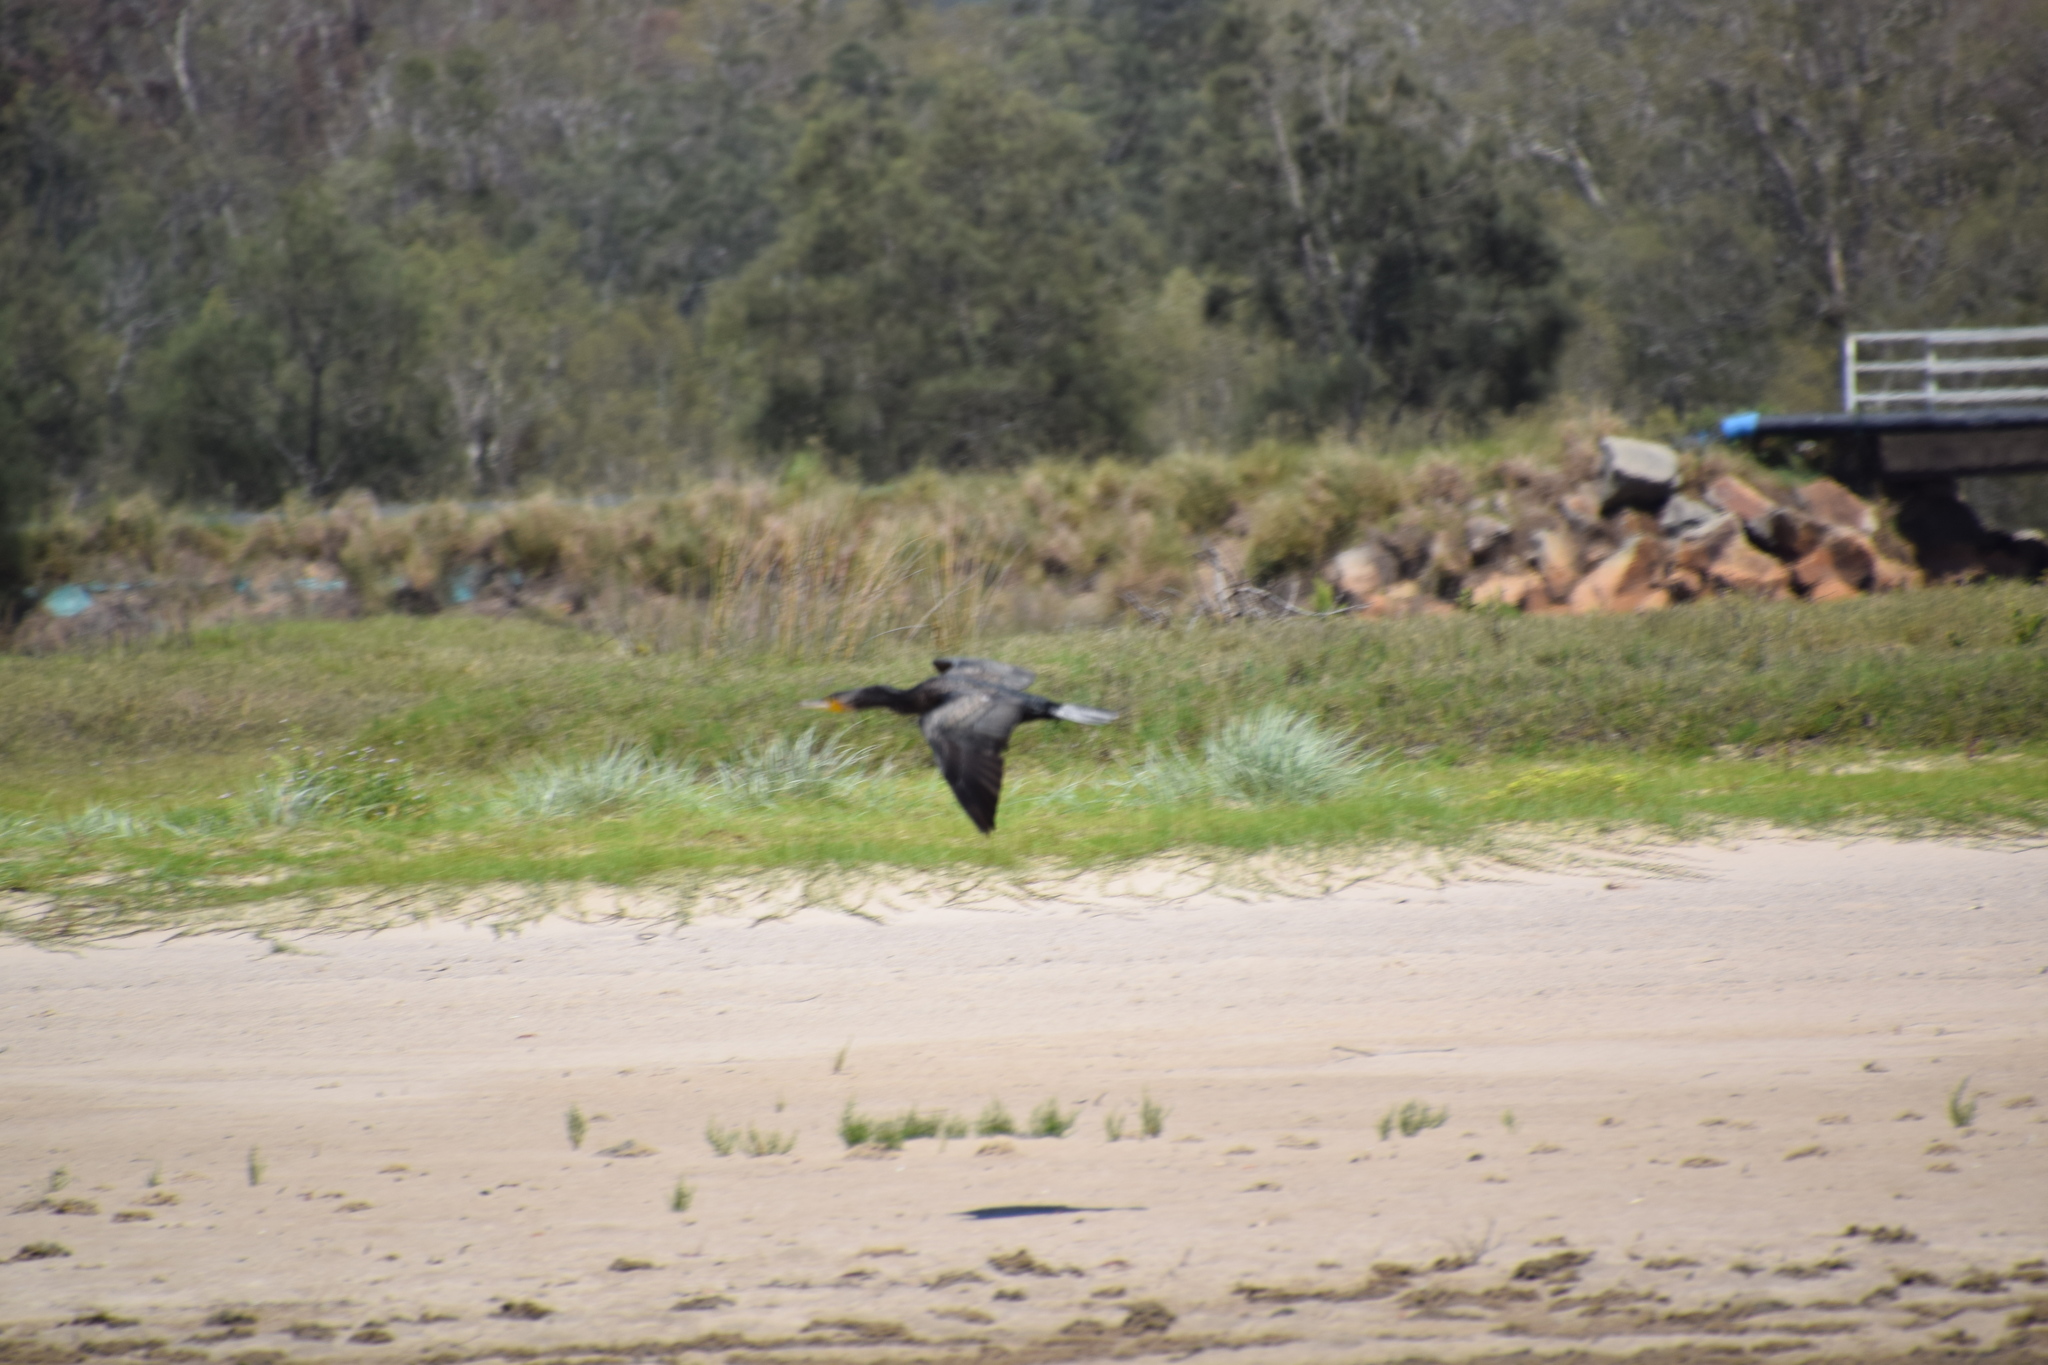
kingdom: Animalia
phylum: Chordata
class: Aves
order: Suliformes
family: Phalacrocoracidae
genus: Phalacrocorax
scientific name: Phalacrocorax carbo
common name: Great cormorant
